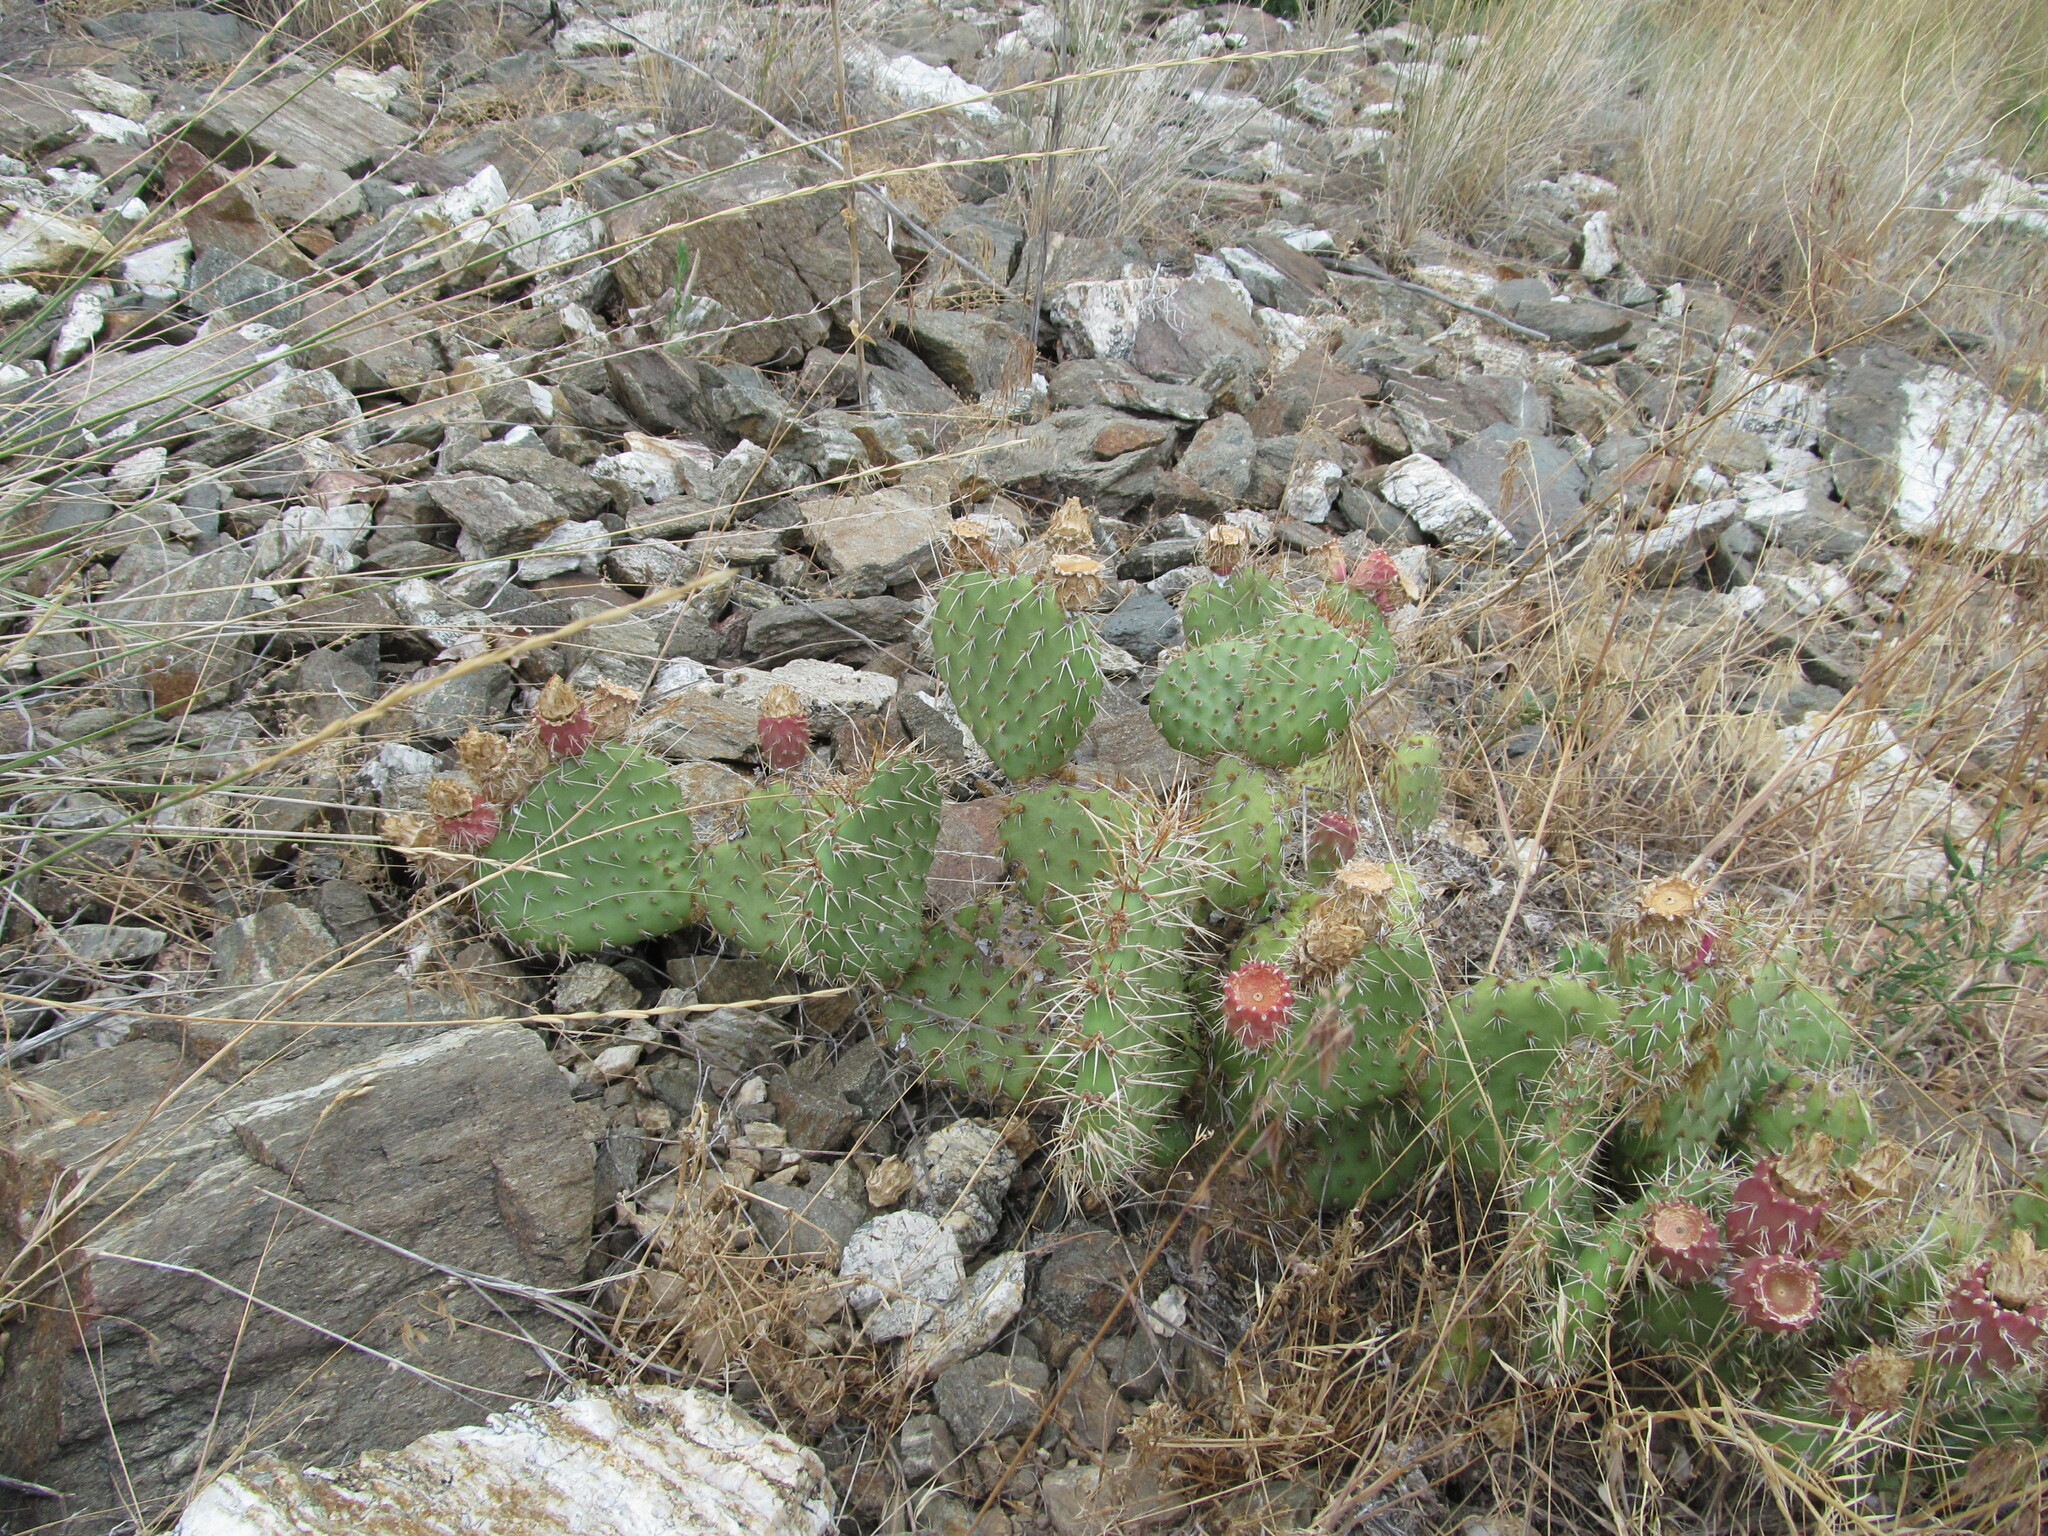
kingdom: Plantae
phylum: Tracheophyta
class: Magnoliopsida
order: Caryophyllales
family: Cactaceae
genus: Opuntia
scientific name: Opuntia polyacantha
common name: Plains prickly-pear
